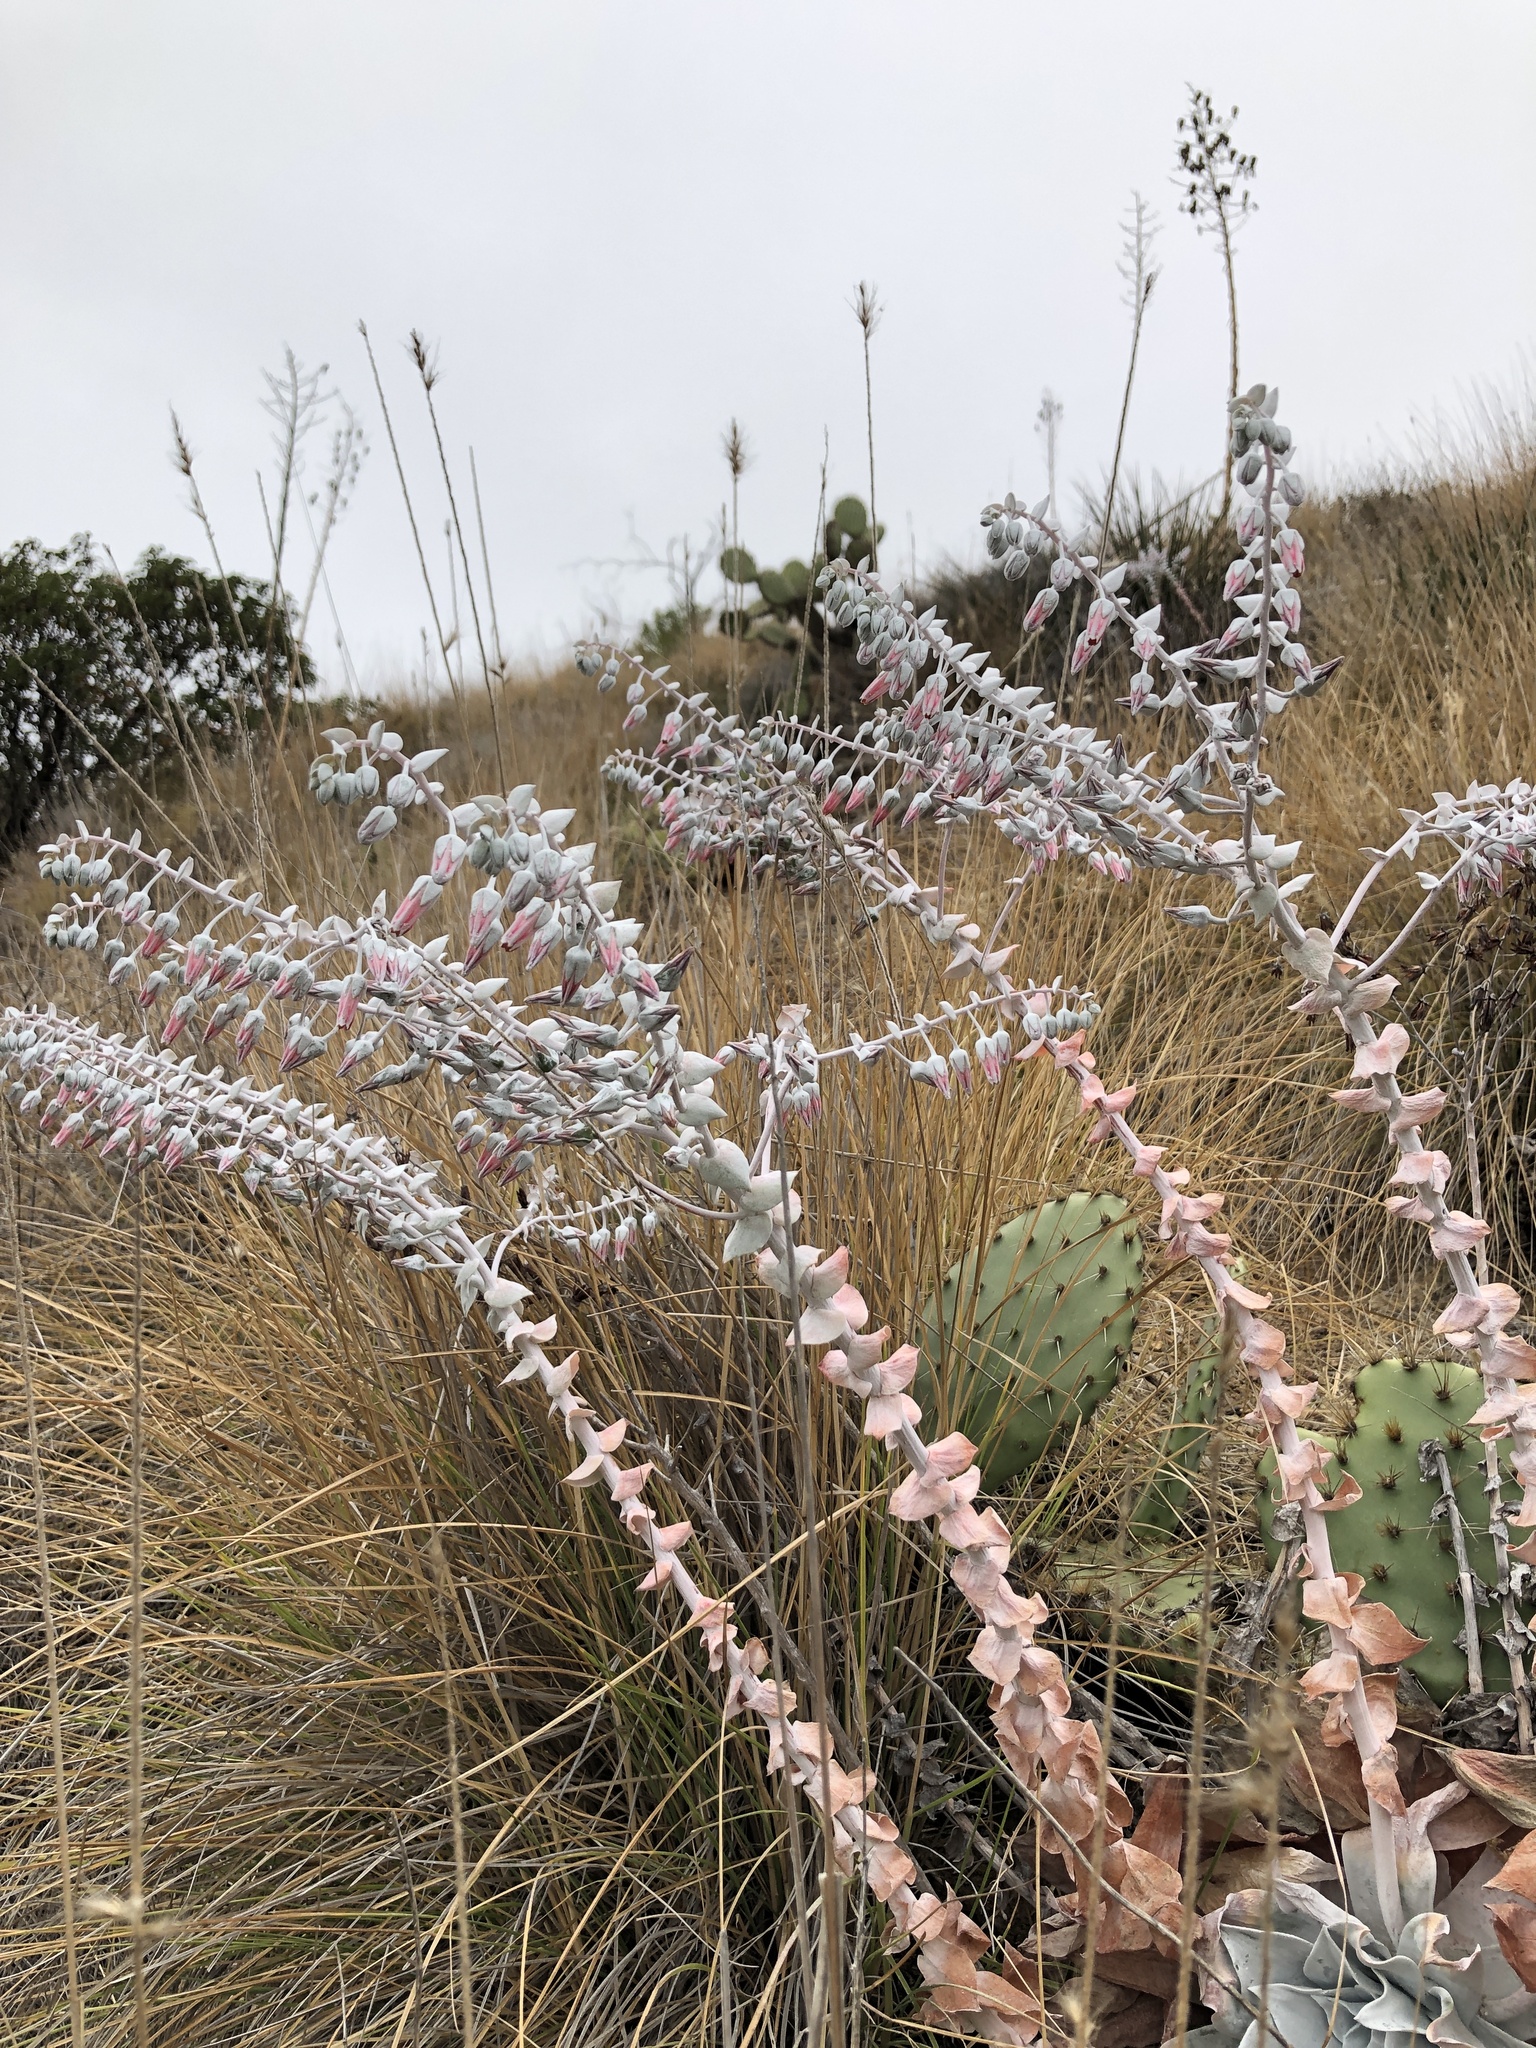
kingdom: Plantae
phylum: Tracheophyta
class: Magnoliopsida
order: Saxifragales
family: Crassulaceae
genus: Dudleya
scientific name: Dudleya pulverulenta
